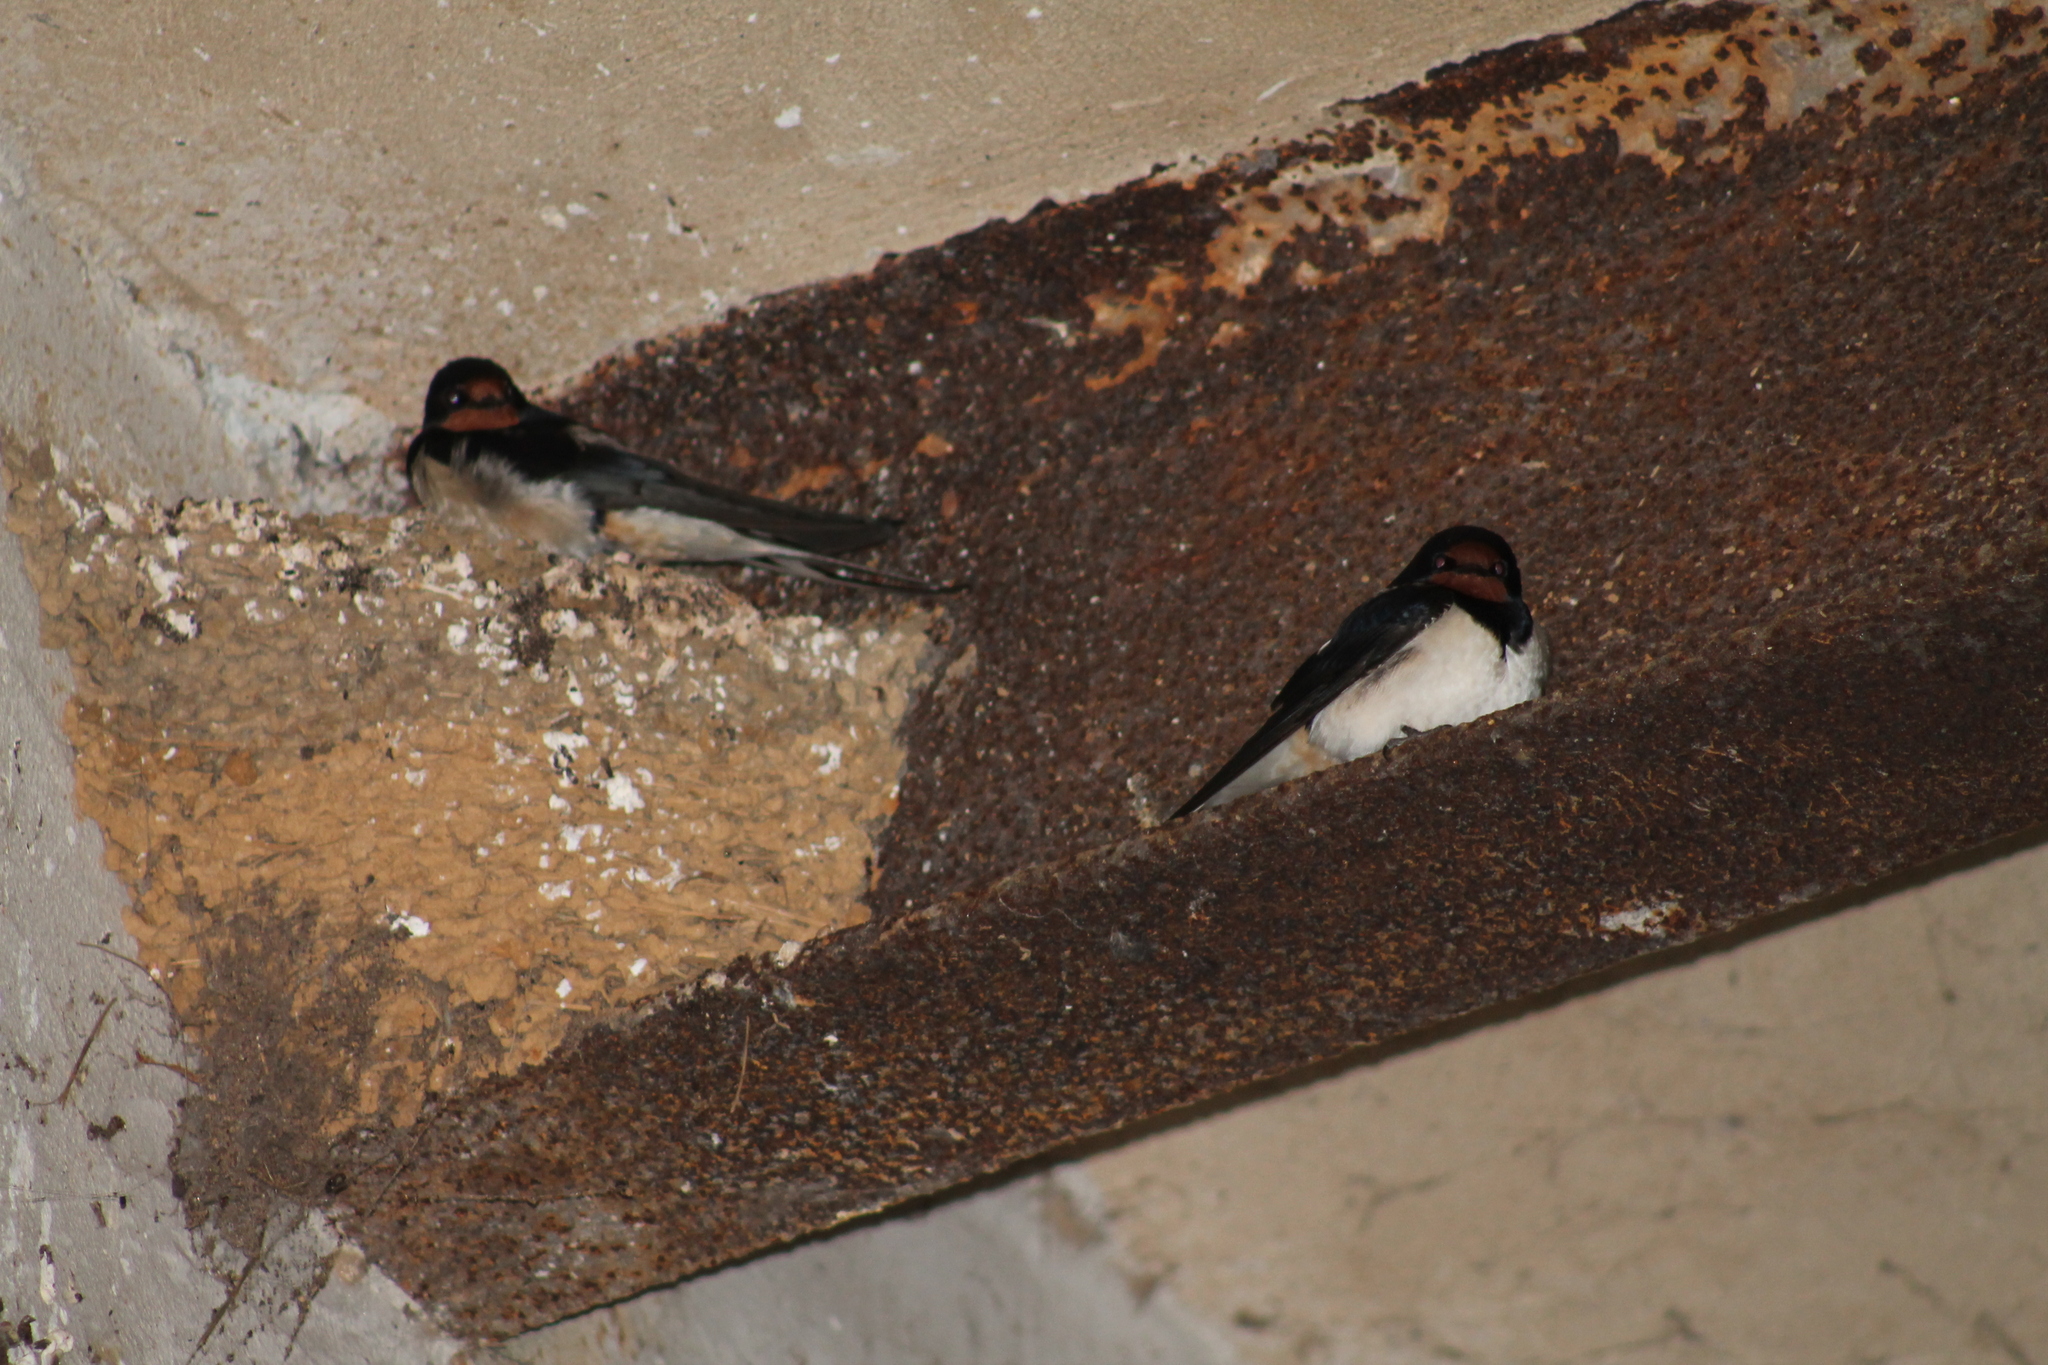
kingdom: Animalia
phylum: Chordata
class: Aves
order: Passeriformes
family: Hirundinidae
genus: Hirundo
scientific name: Hirundo rustica
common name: Barn swallow
